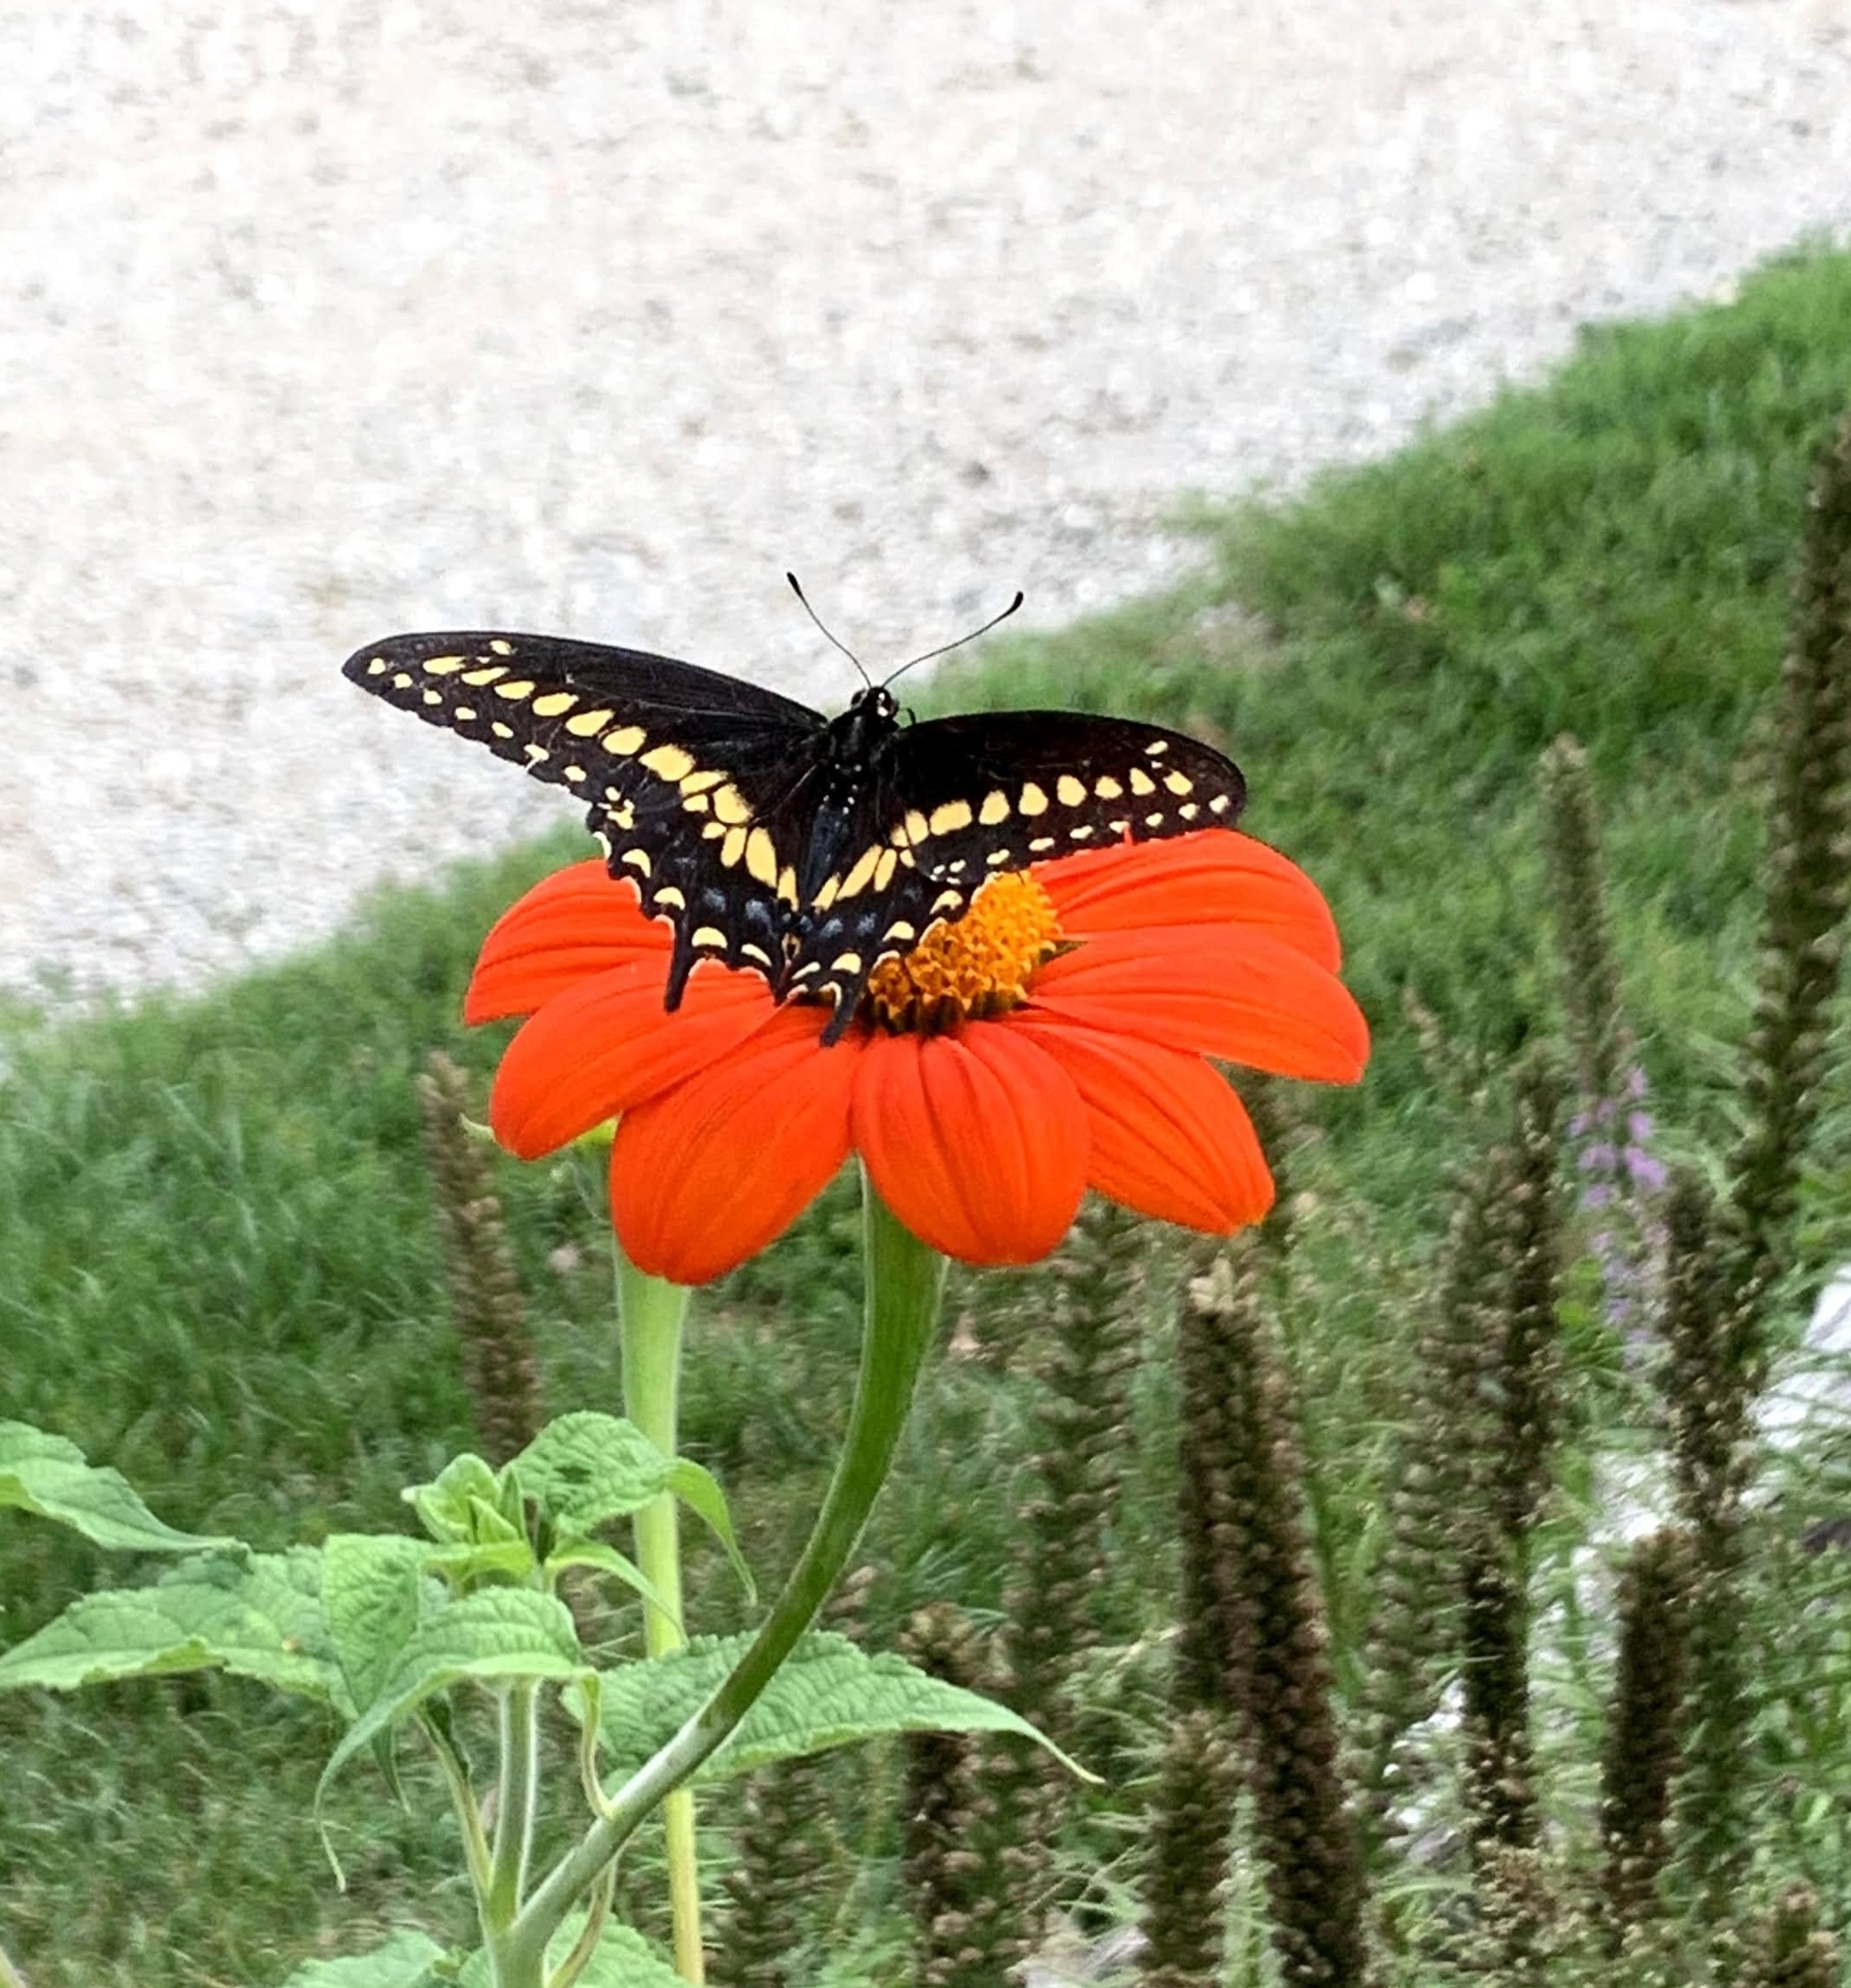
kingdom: Animalia
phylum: Arthropoda
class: Insecta
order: Lepidoptera
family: Papilionidae
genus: Papilio
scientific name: Papilio polyxenes
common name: Black swallowtail
